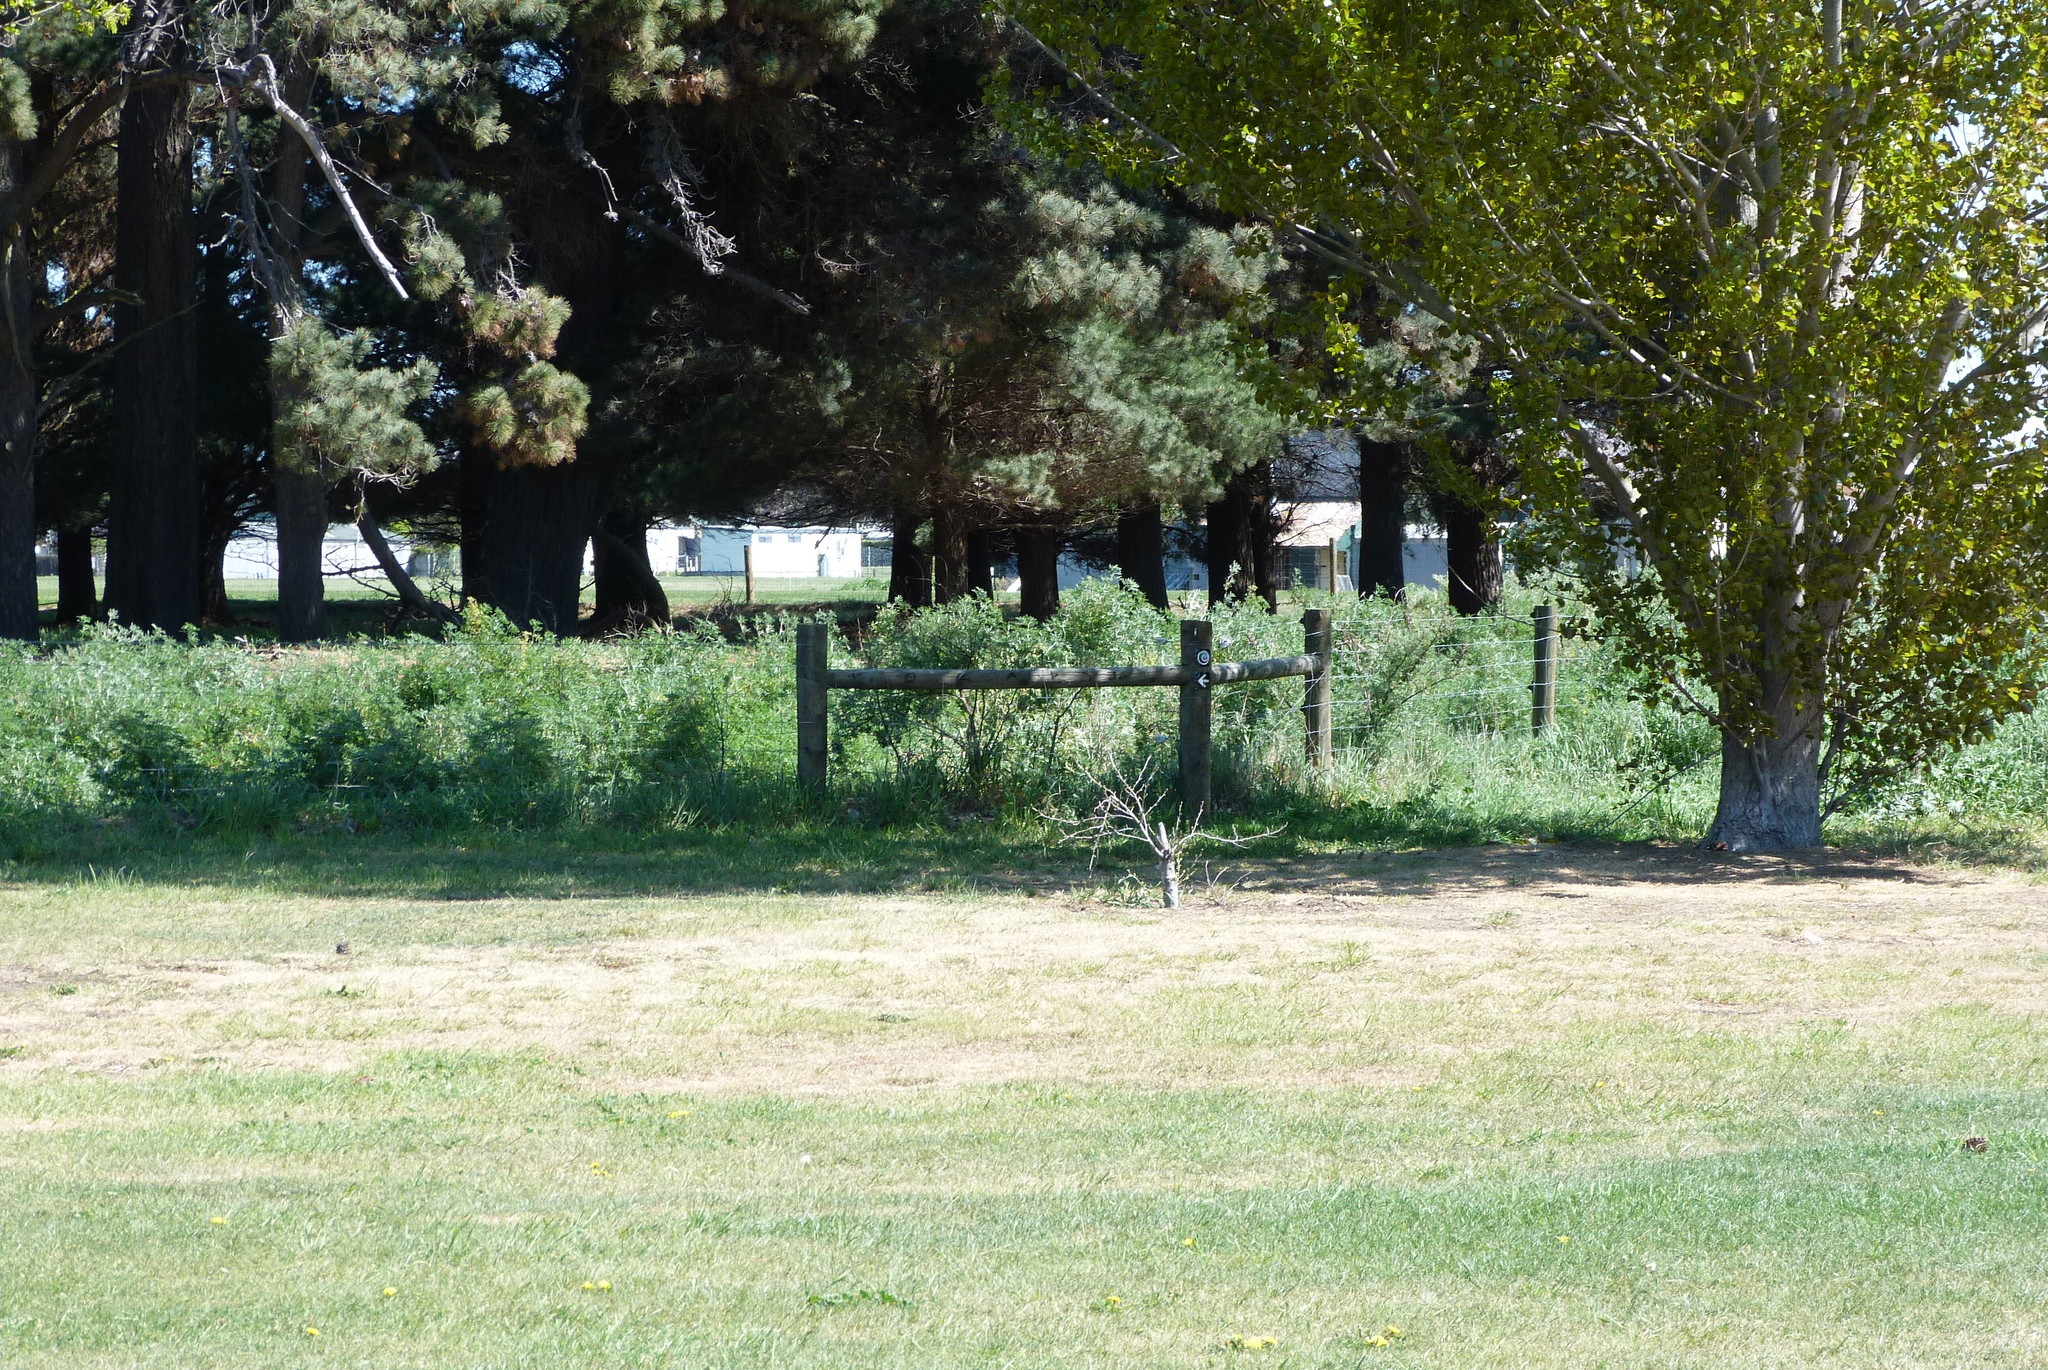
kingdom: Plantae
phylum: Tracheophyta
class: Magnoliopsida
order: Fabales
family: Fabaceae
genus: Lupinus
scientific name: Lupinus arboreus
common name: Yellow bush lupine
